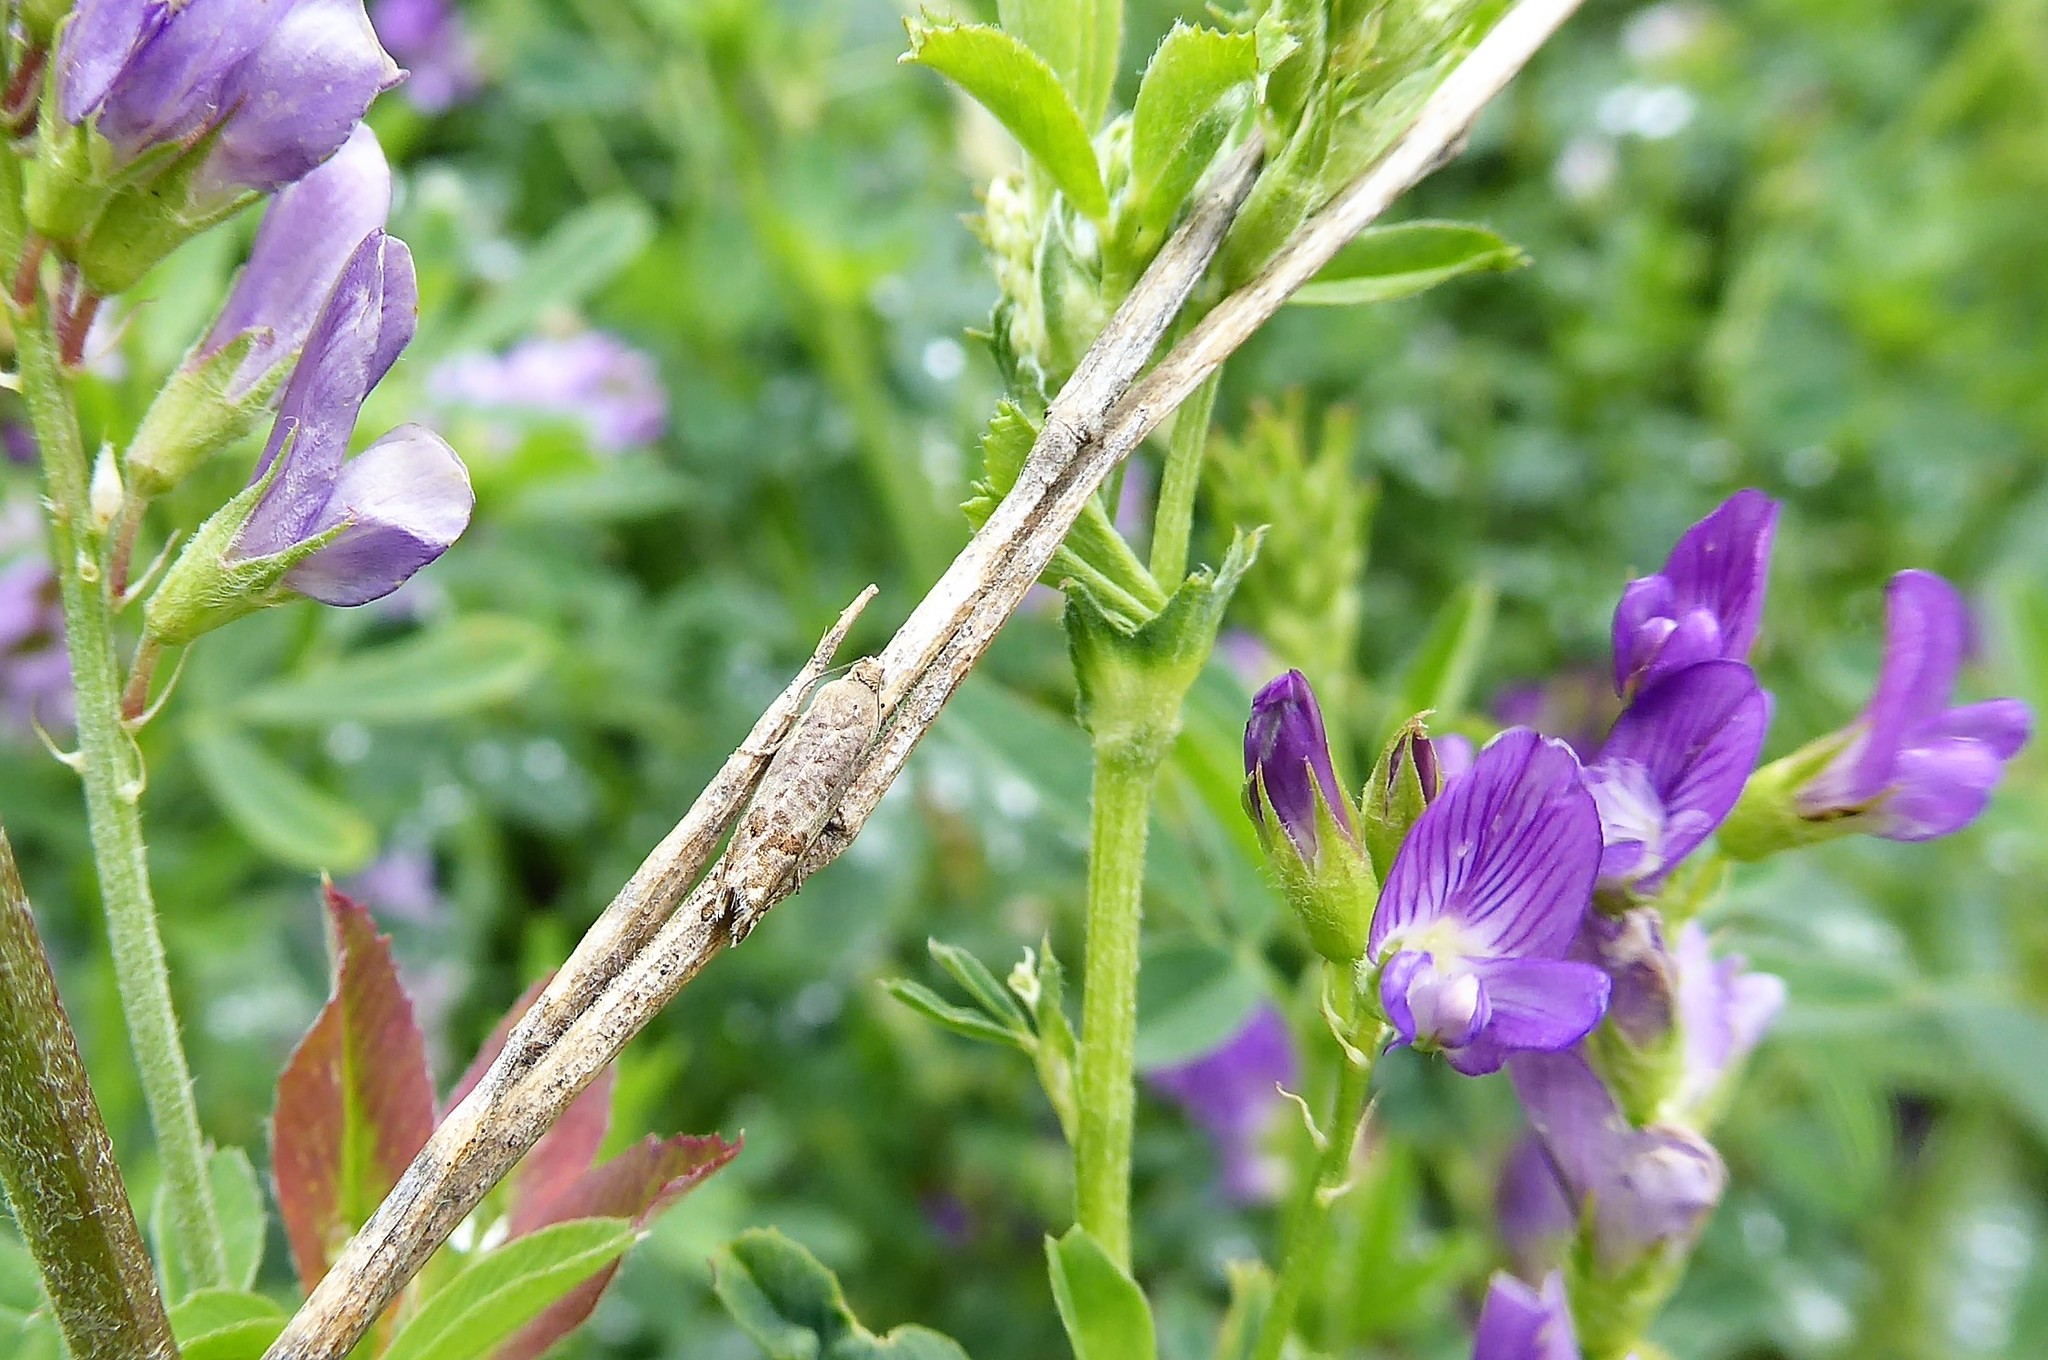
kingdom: Animalia
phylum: Arthropoda
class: Insecta
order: Lepidoptera
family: Tortricidae
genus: Cydia
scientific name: Cydia succedana
